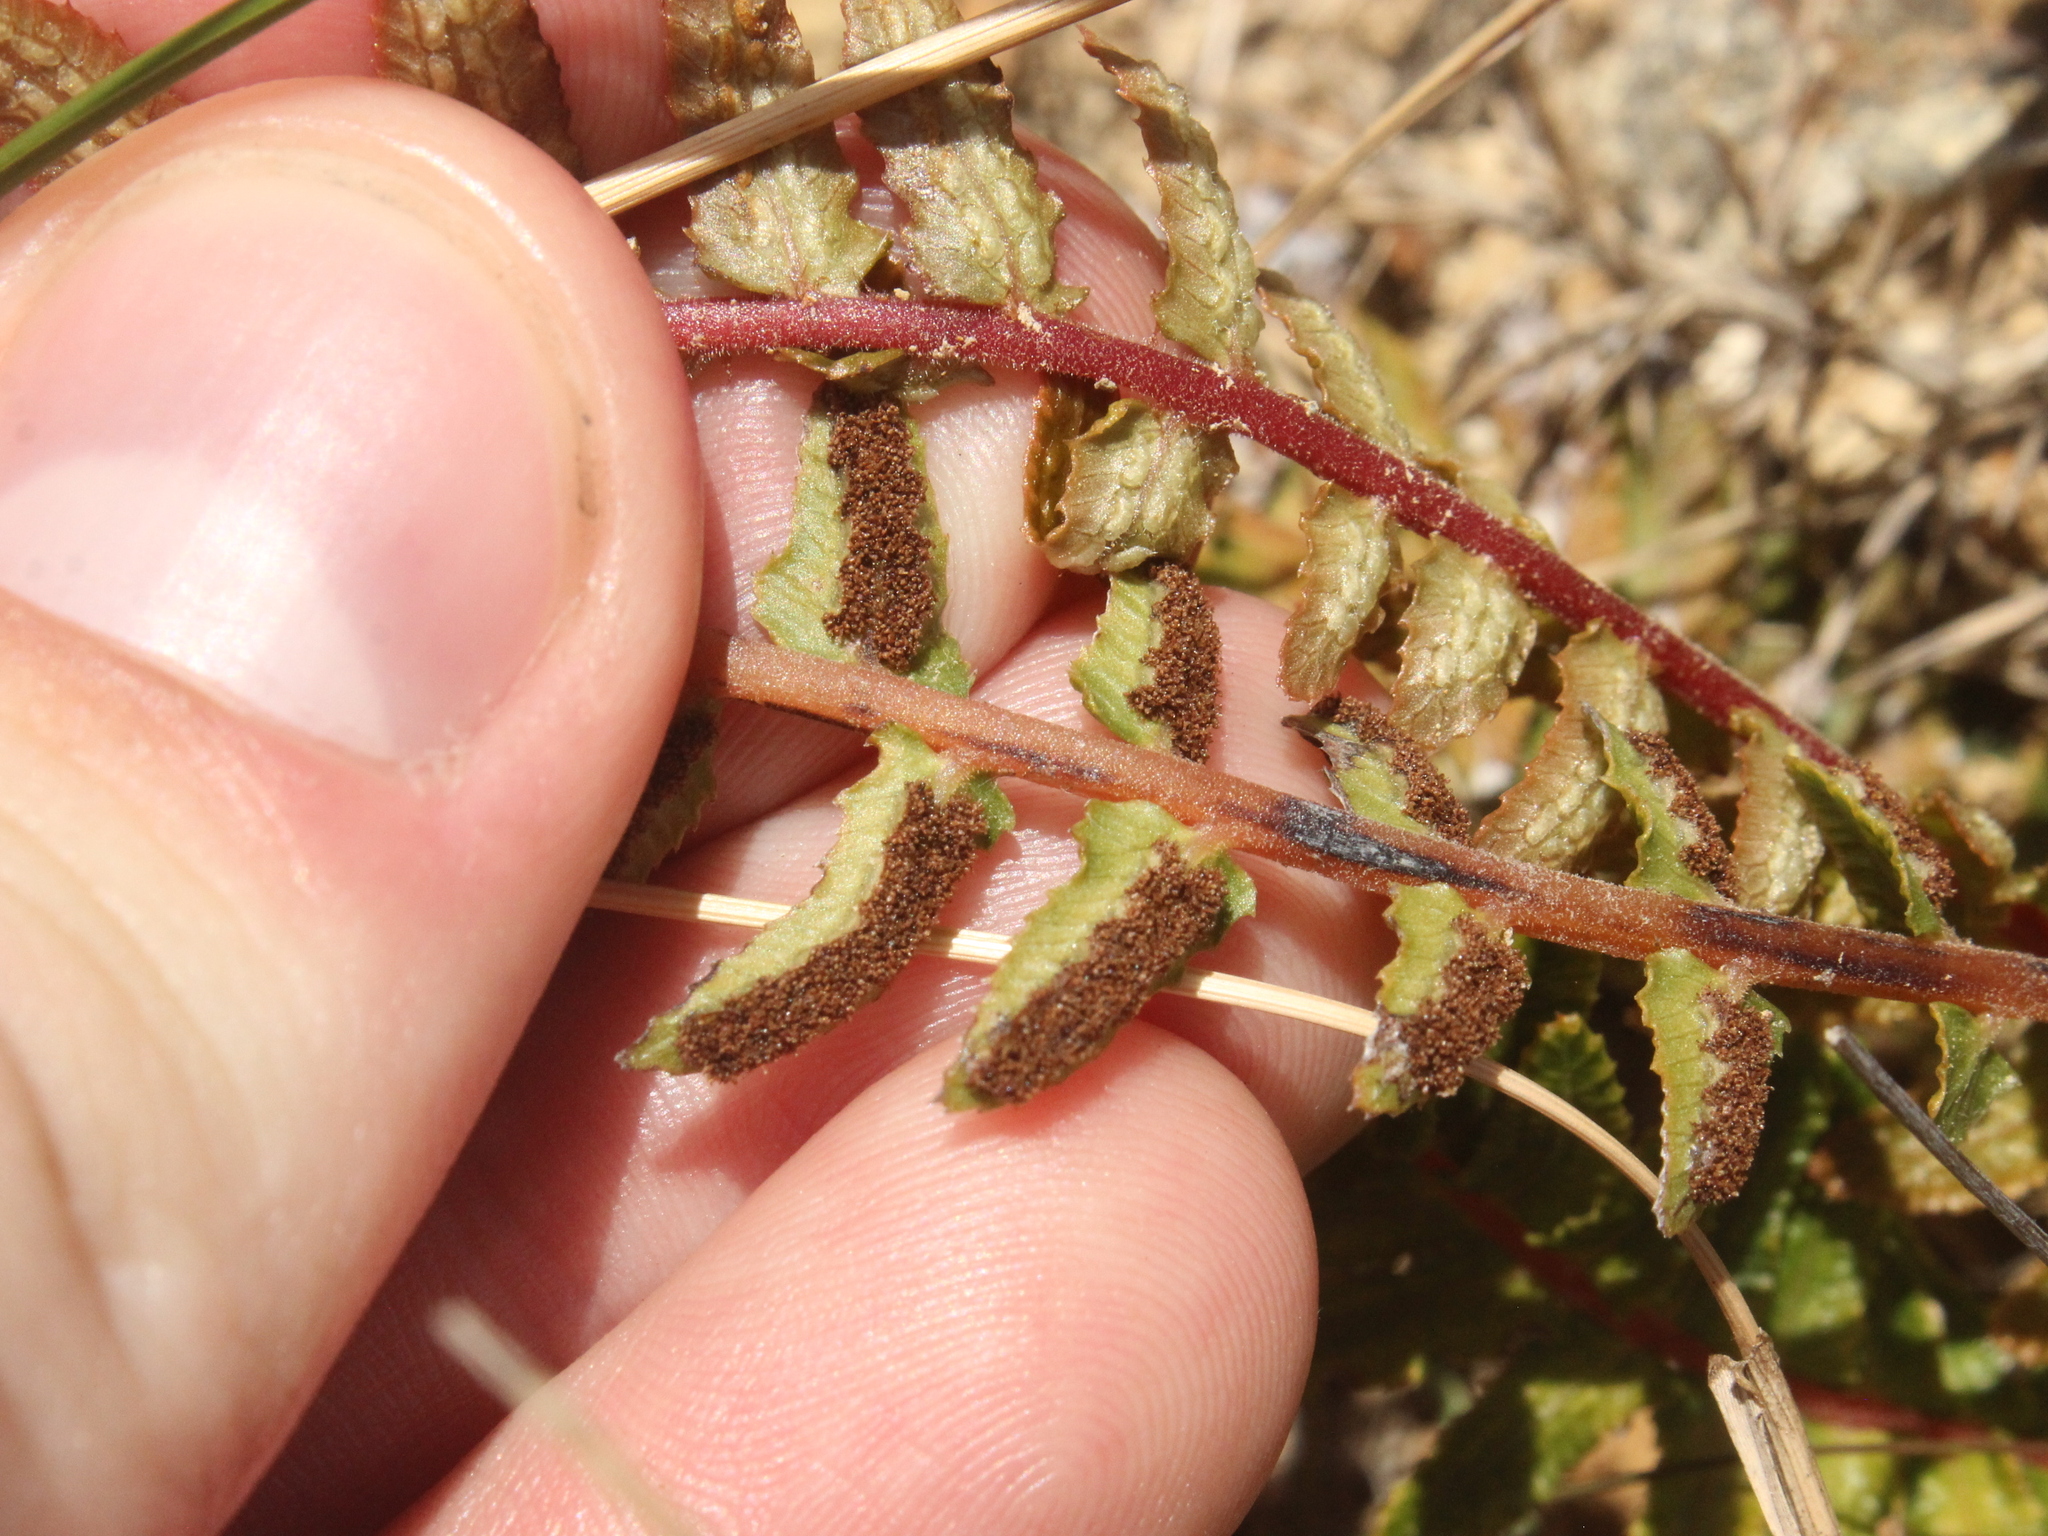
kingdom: Plantae
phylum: Tracheophyta
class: Polypodiopsida
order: Polypodiales
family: Blechnaceae
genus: Doodia
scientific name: Doodia australis
